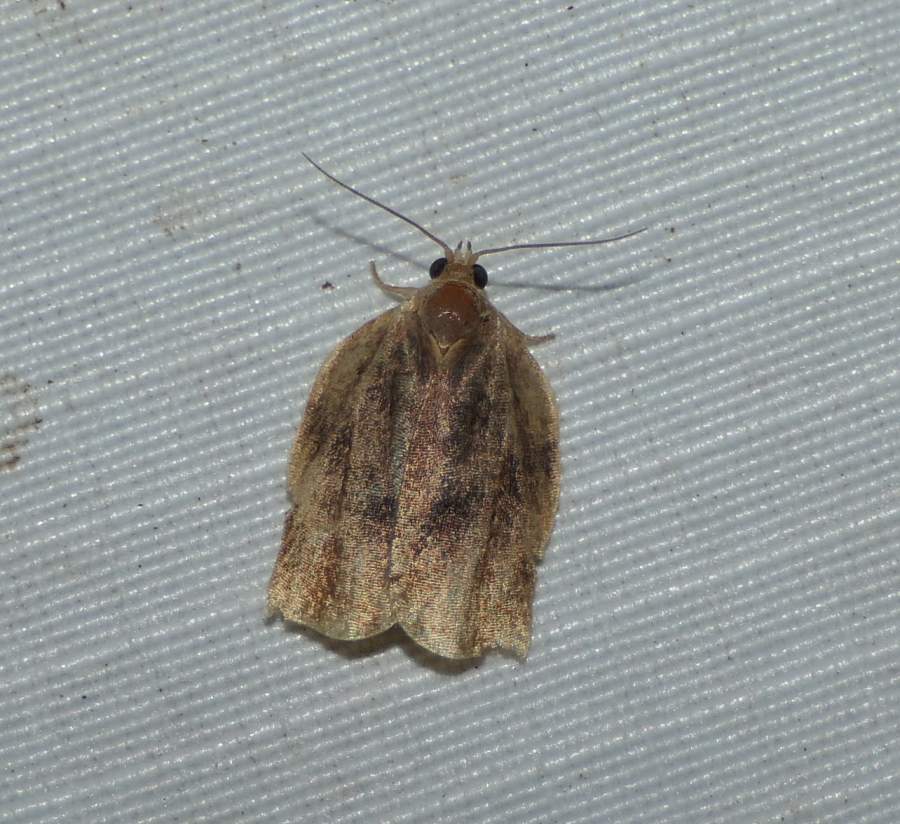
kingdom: Animalia
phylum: Arthropoda
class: Insecta
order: Lepidoptera
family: Tortricidae
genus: Archips
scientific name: Archips purpurana
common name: Omnivorous leafroller
